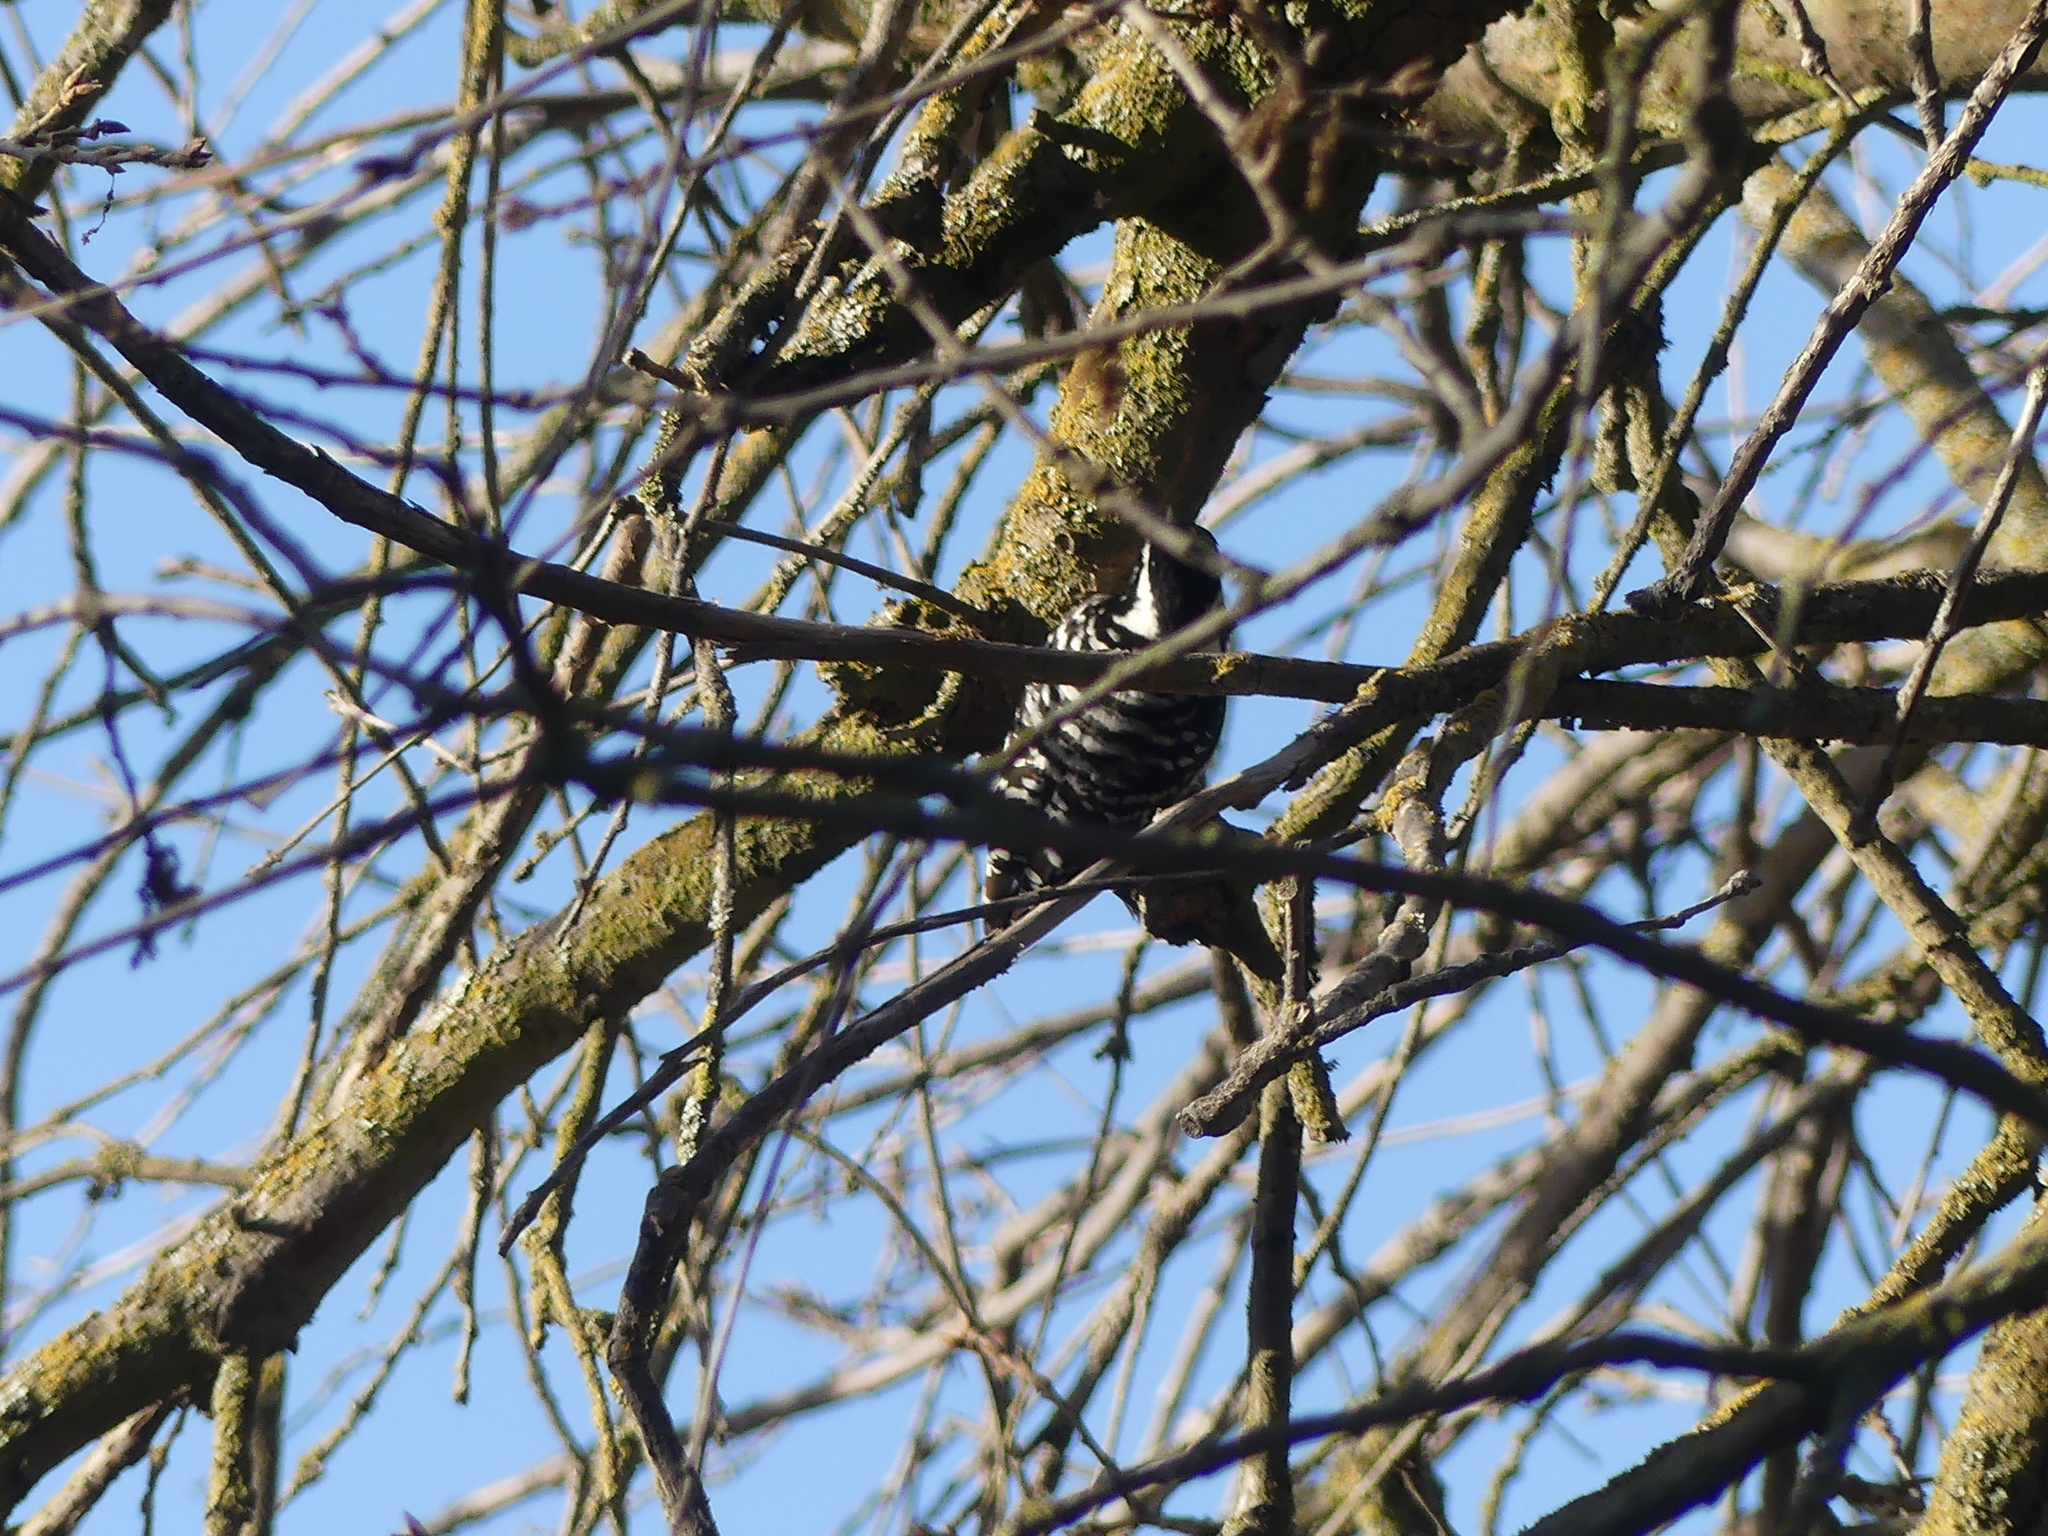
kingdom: Animalia
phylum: Chordata
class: Aves
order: Piciformes
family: Picidae
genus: Dryobates
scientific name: Dryobates nuttallii
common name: Nuttall's woodpecker
